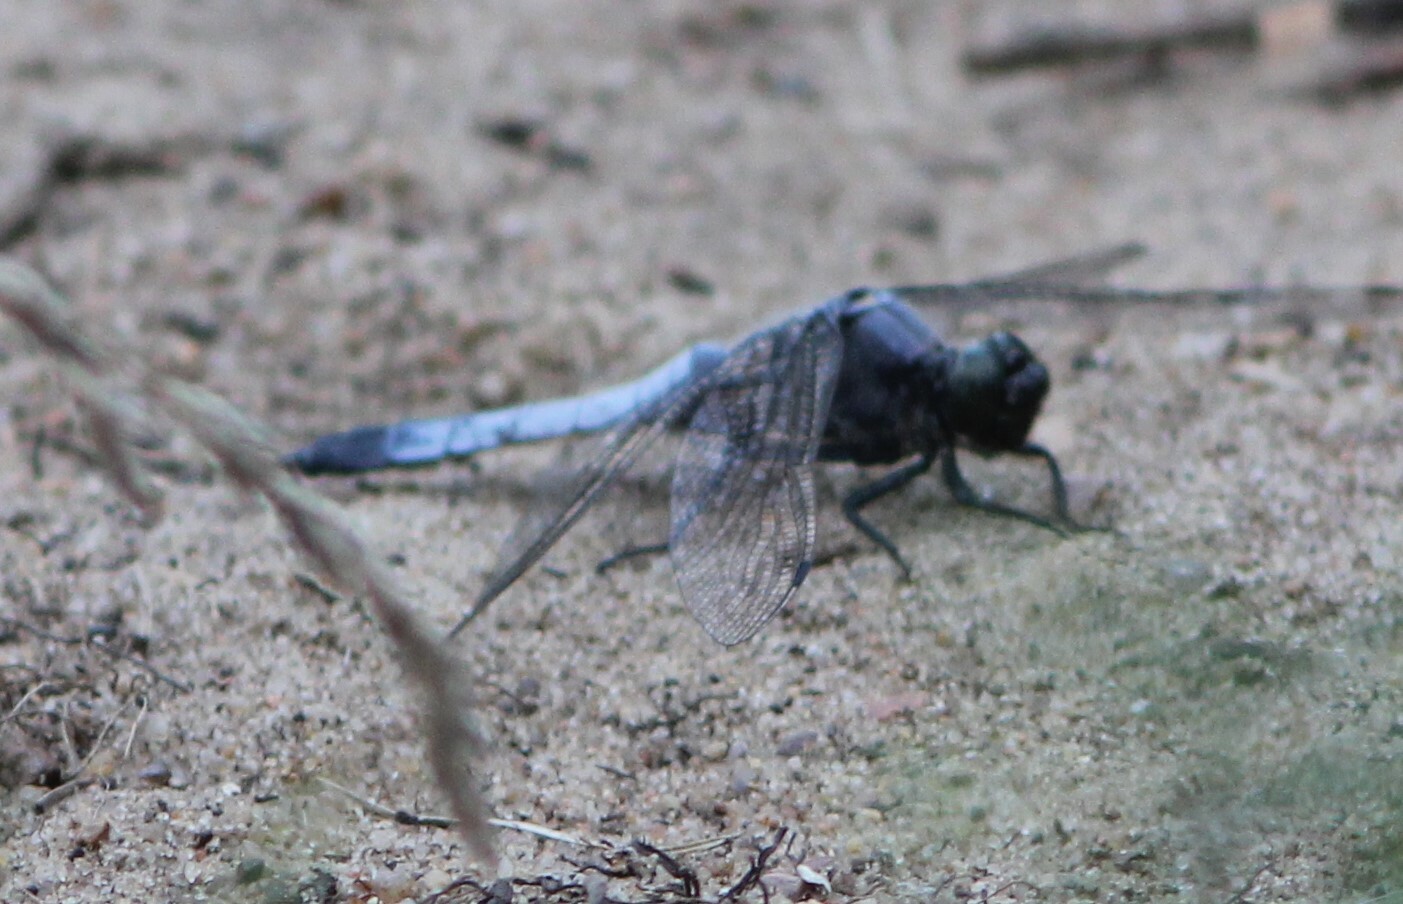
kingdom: Animalia
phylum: Arthropoda
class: Insecta
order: Odonata
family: Libellulidae
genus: Orthetrum
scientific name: Orthetrum cancellatum
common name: Black-tailed skimmer
